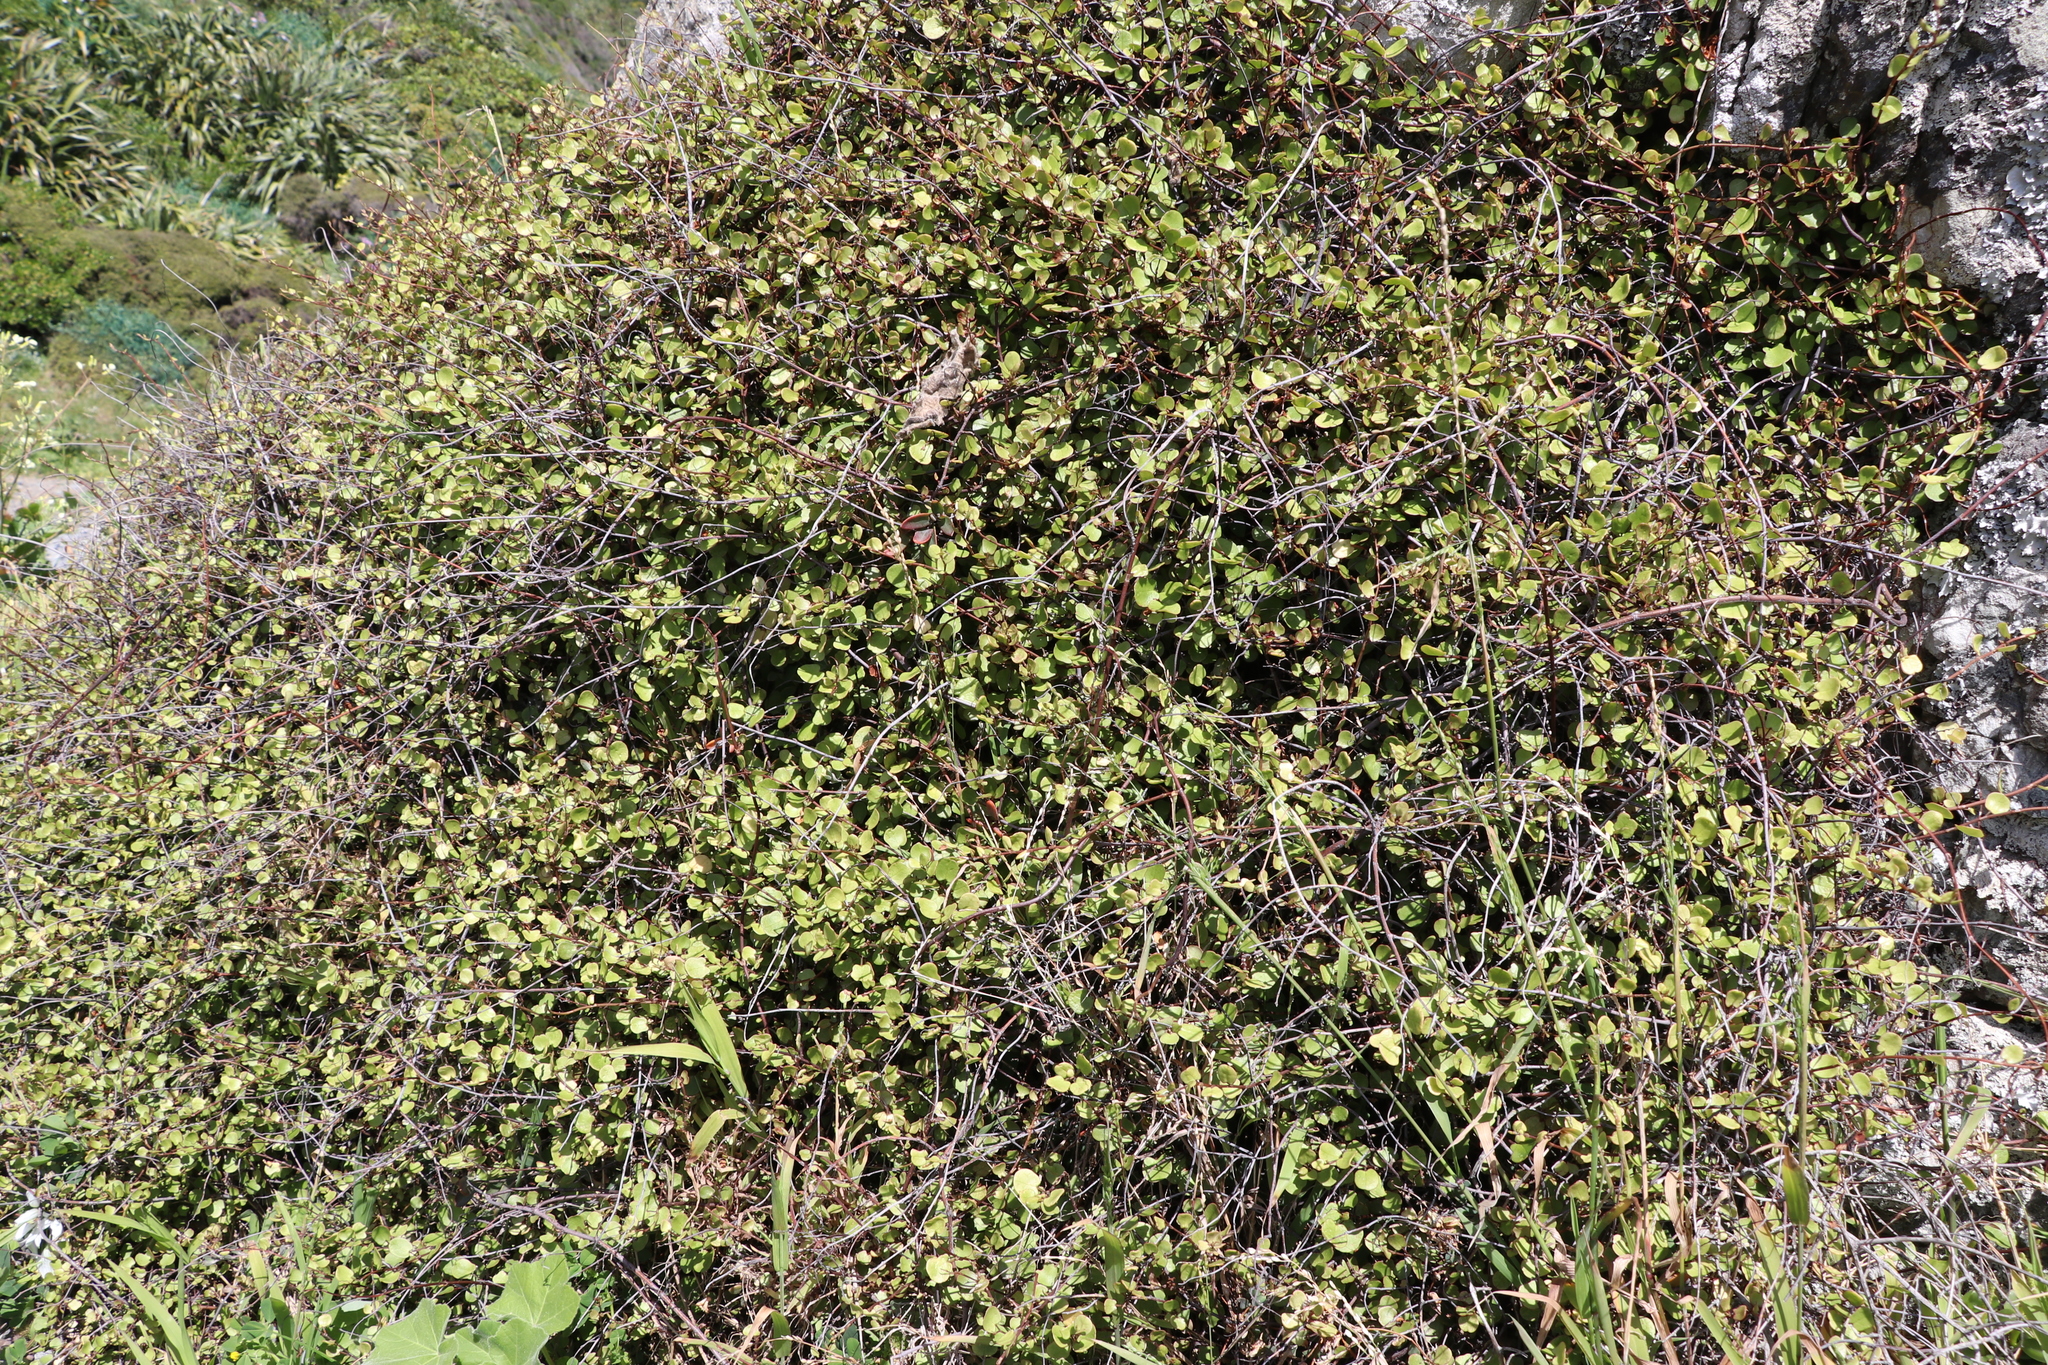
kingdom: Plantae
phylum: Tracheophyta
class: Magnoliopsida
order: Caryophyllales
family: Polygonaceae
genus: Muehlenbeckia
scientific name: Muehlenbeckia complexa
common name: Wireplant
